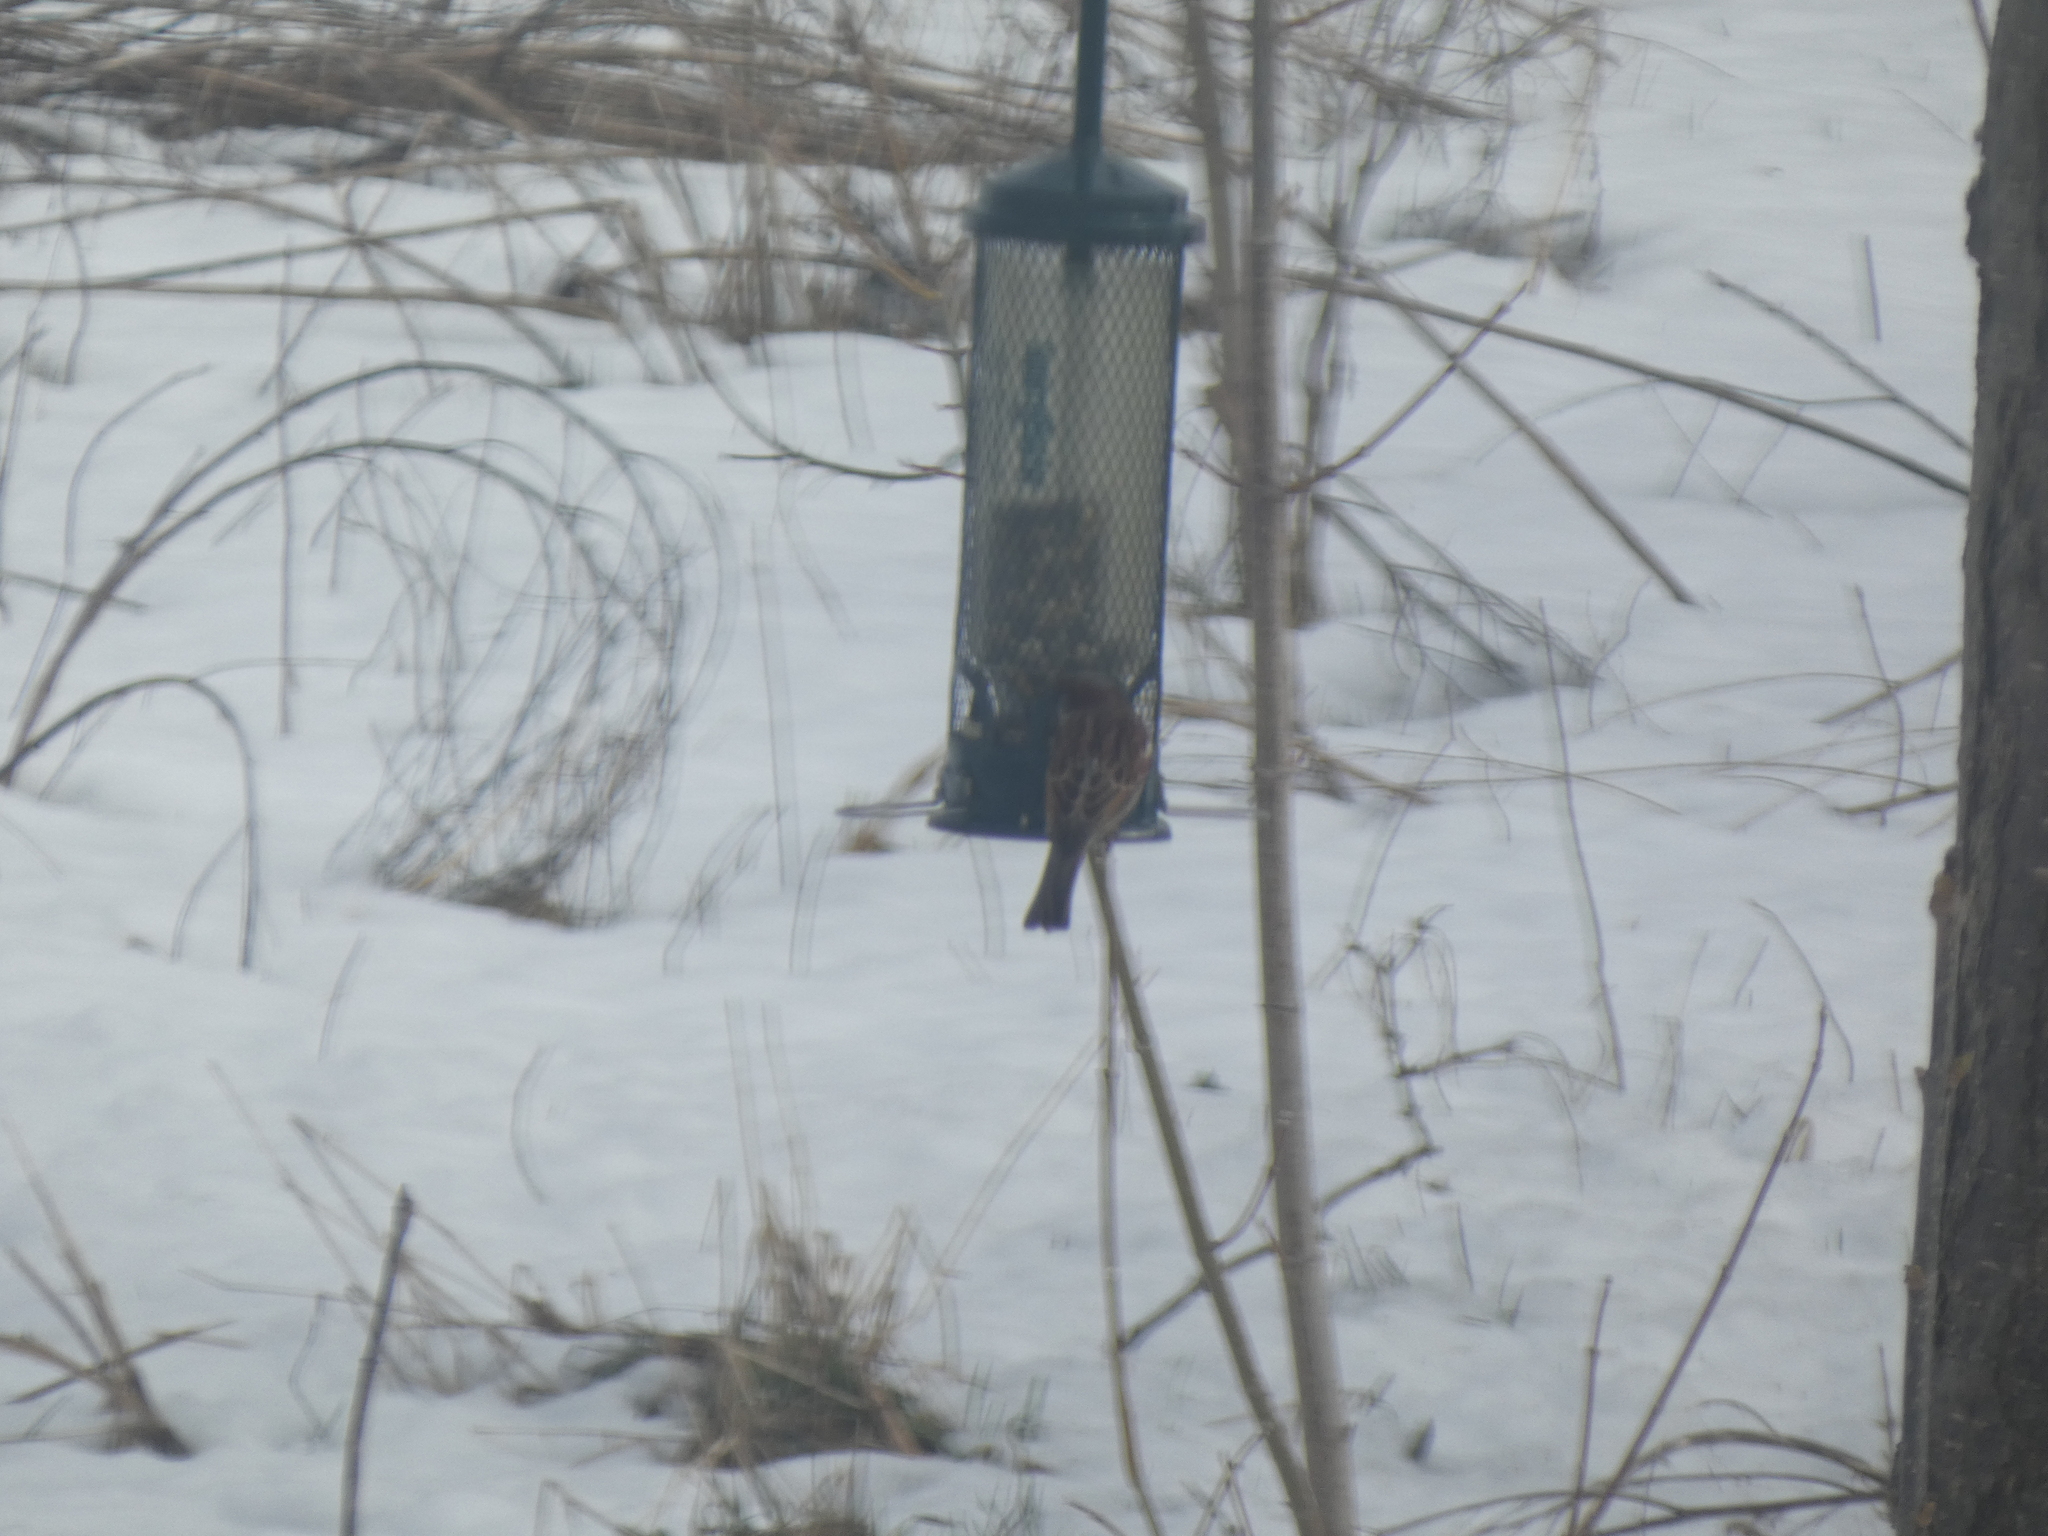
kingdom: Animalia
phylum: Chordata
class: Aves
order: Passeriformes
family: Passeridae
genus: Passer
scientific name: Passer domesticus
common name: House sparrow
